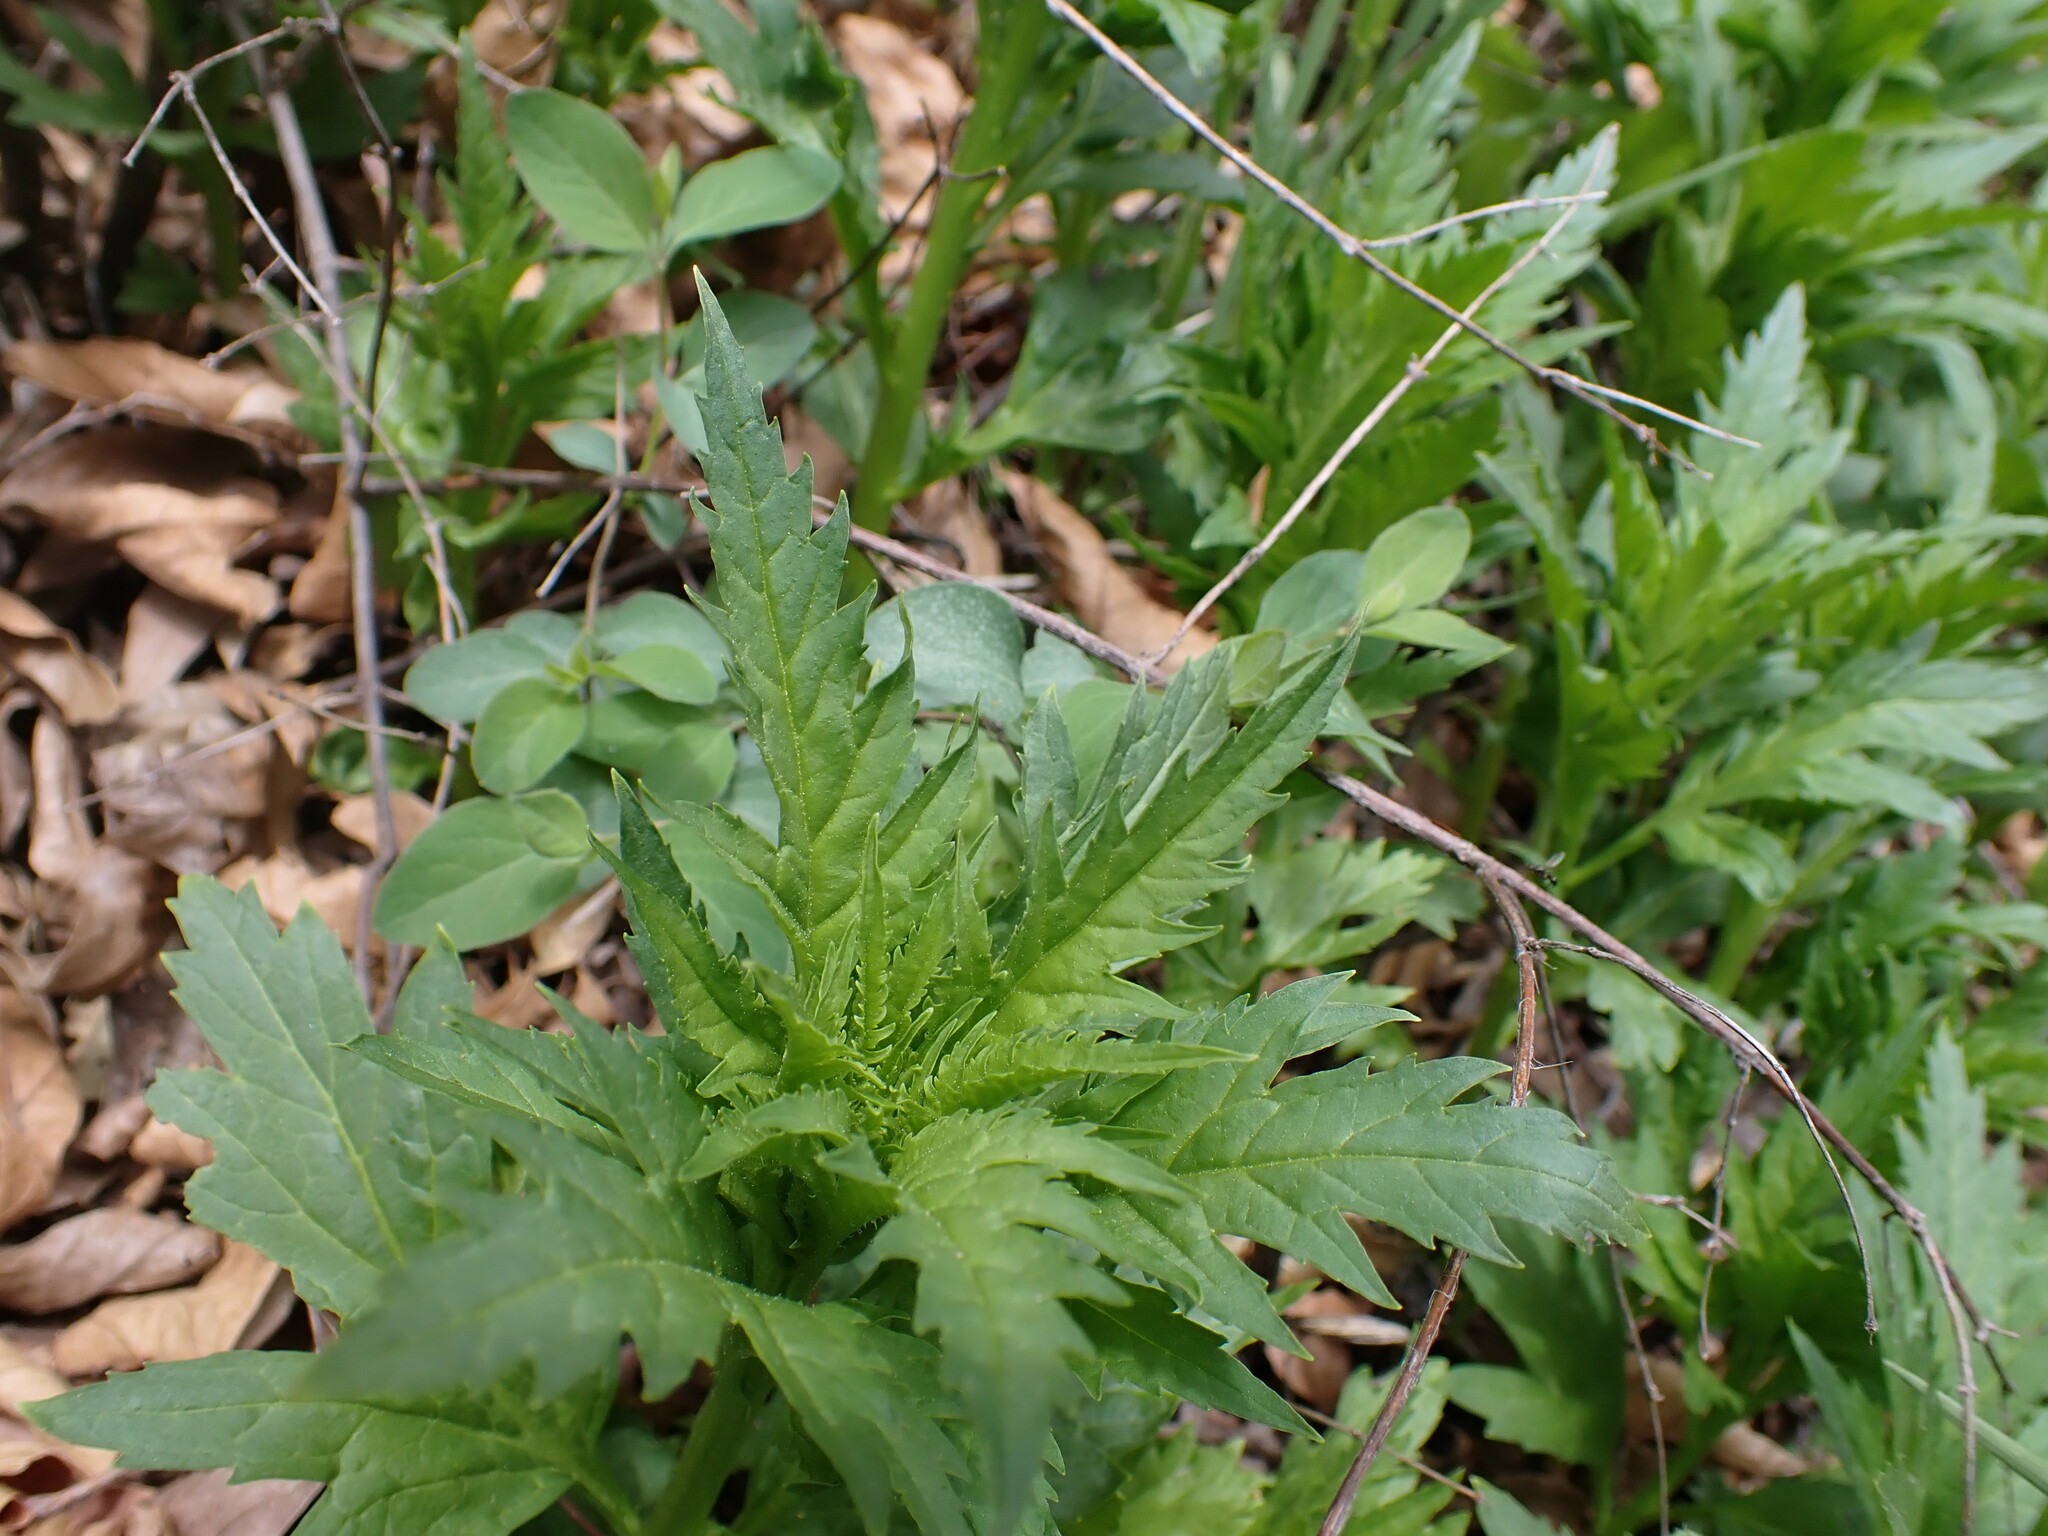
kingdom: Plantae
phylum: Tracheophyta
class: Magnoliopsida
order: Cucurbitales
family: Datiscaceae
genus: Datisca
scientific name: Datisca glomerata
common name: Durango-root
